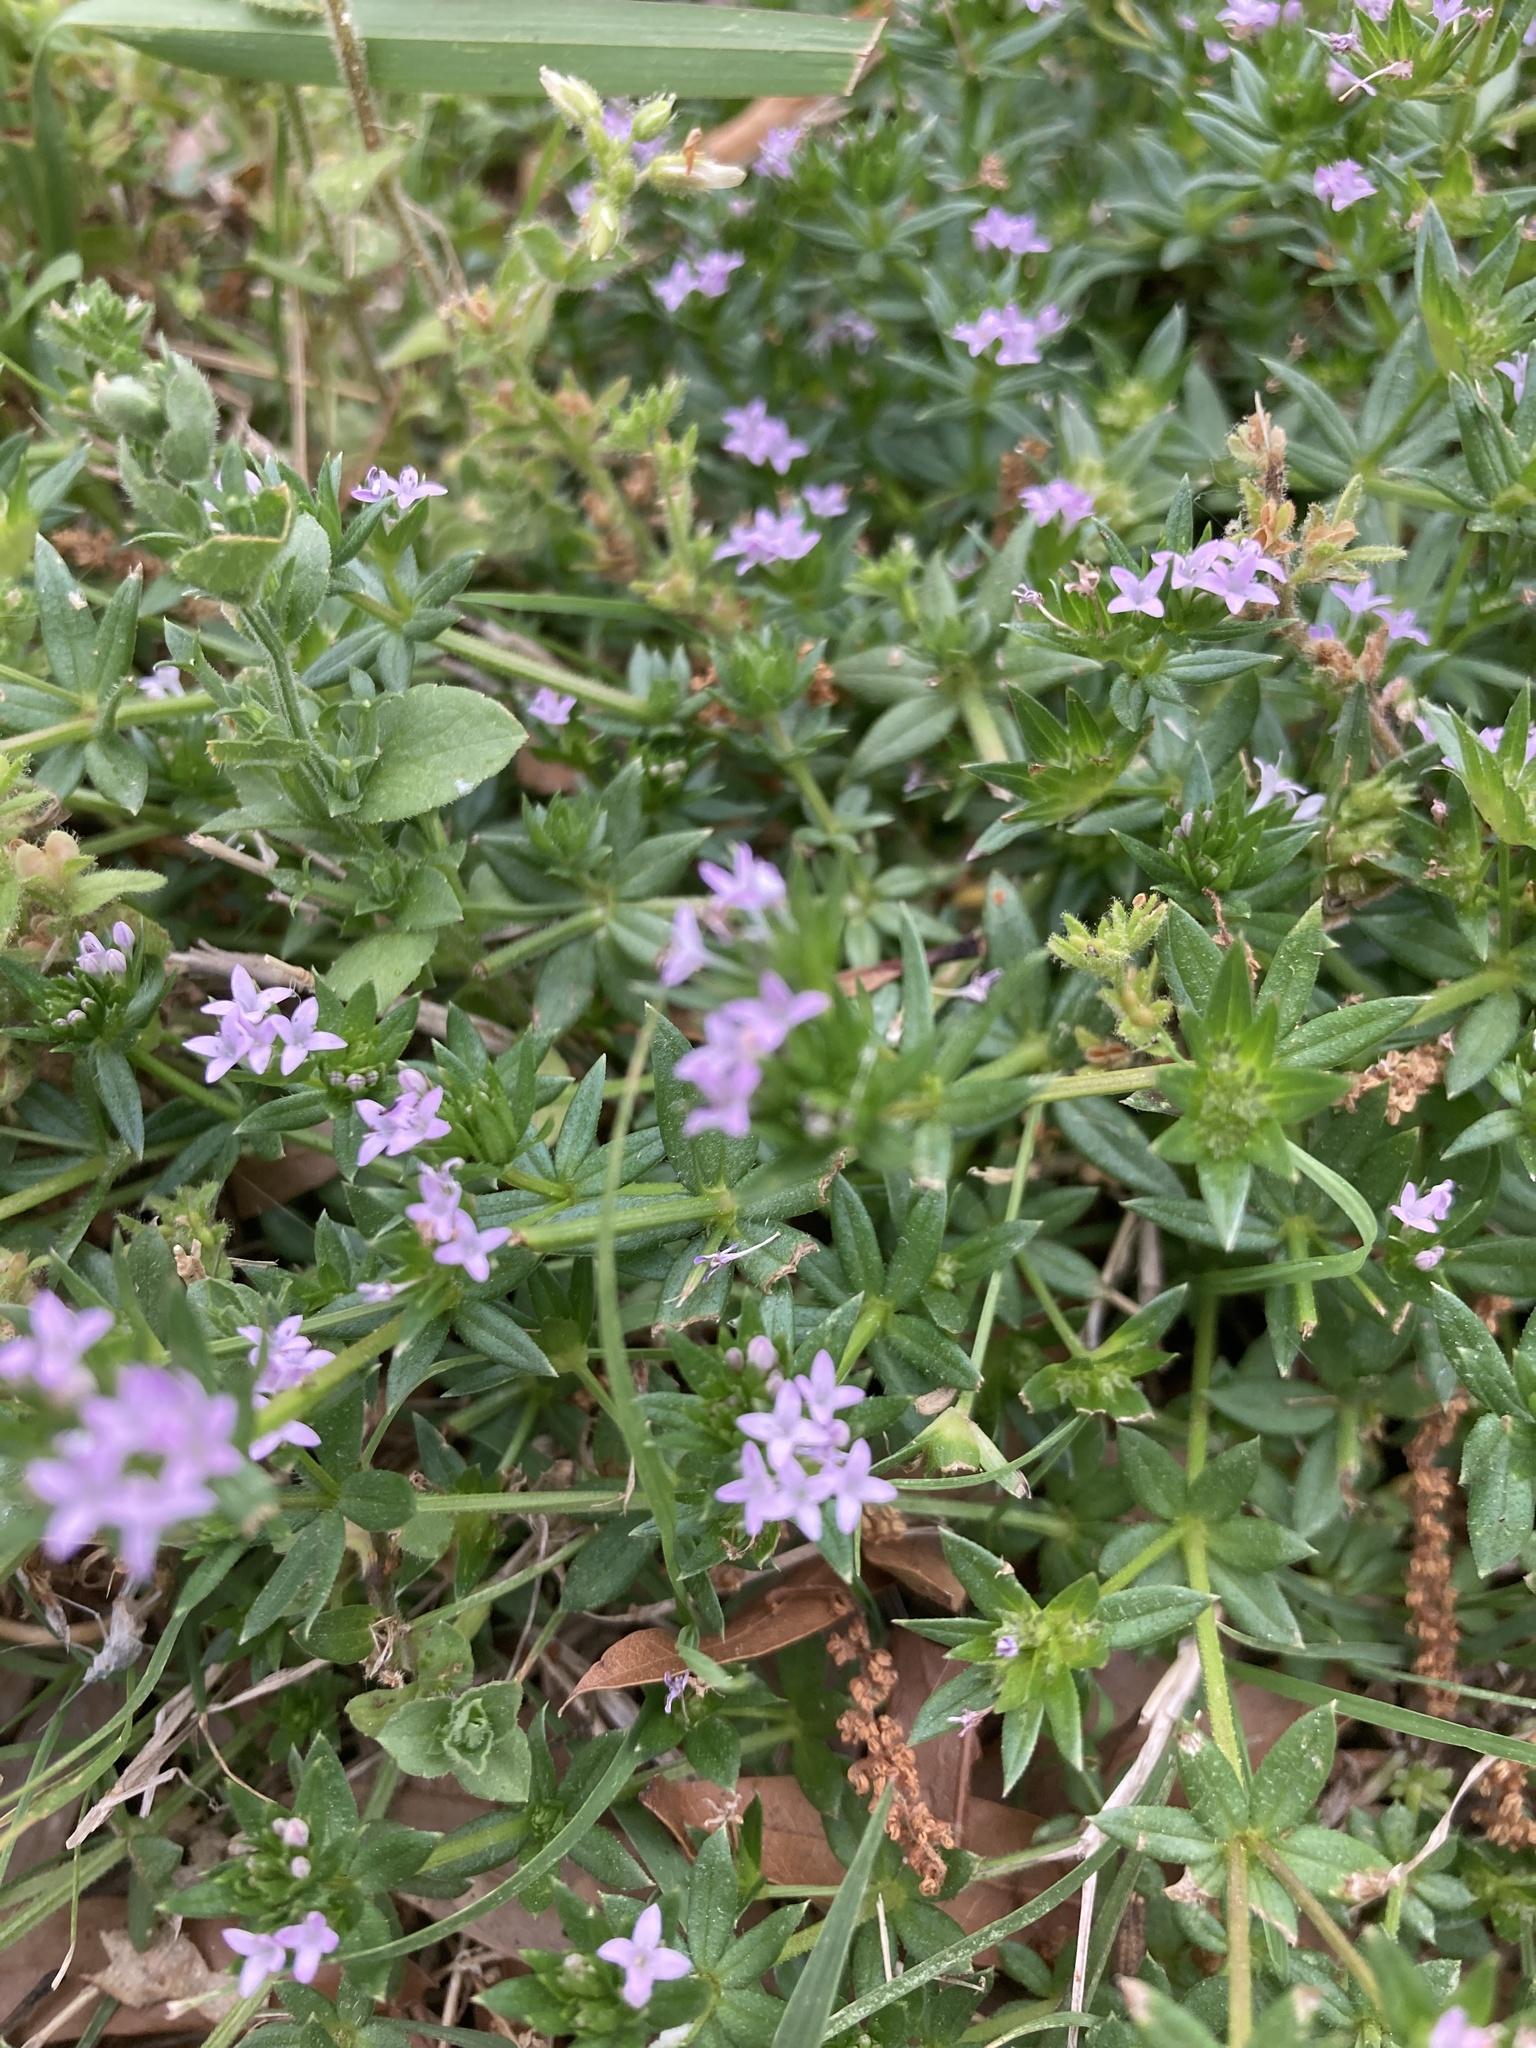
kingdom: Plantae
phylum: Tracheophyta
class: Magnoliopsida
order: Gentianales
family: Rubiaceae
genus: Sherardia
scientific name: Sherardia arvensis
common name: Field madder
